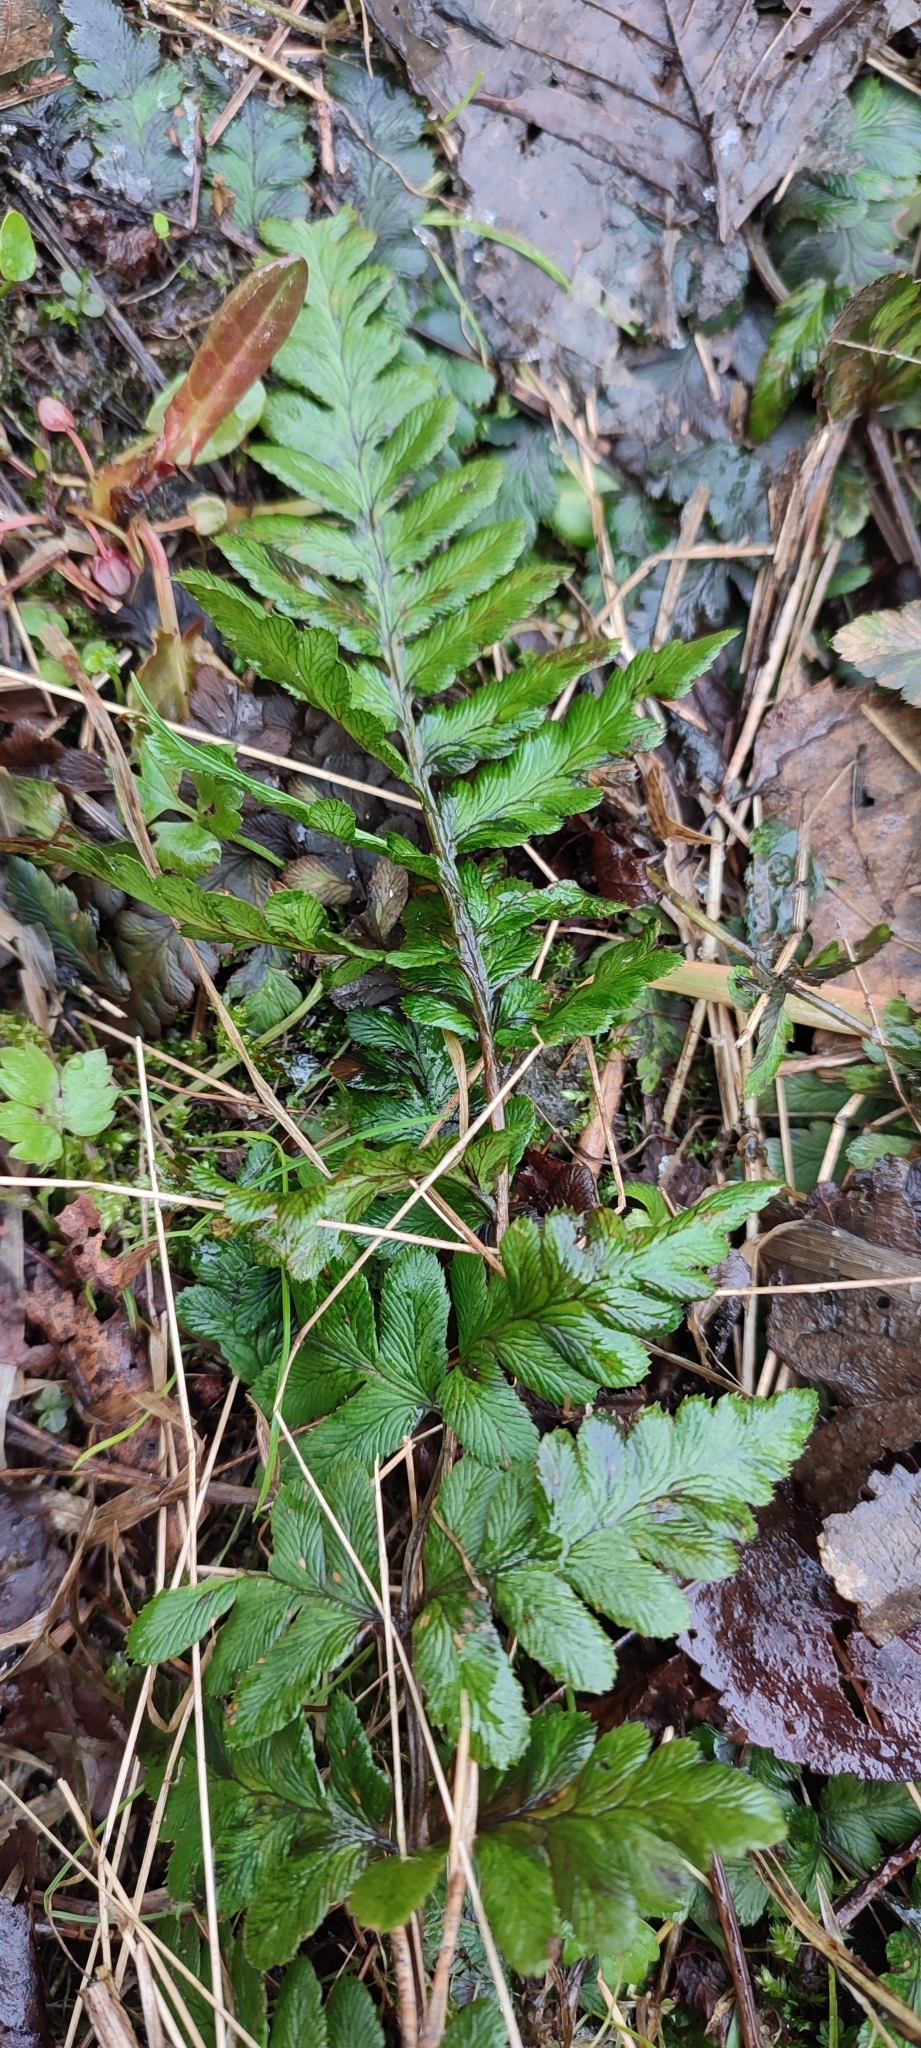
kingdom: Plantae
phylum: Tracheophyta
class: Polypodiopsida
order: Polypodiales
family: Dryopteridaceae
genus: Dryopteris
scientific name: Dryopteris cristata
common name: Crested wood fern
